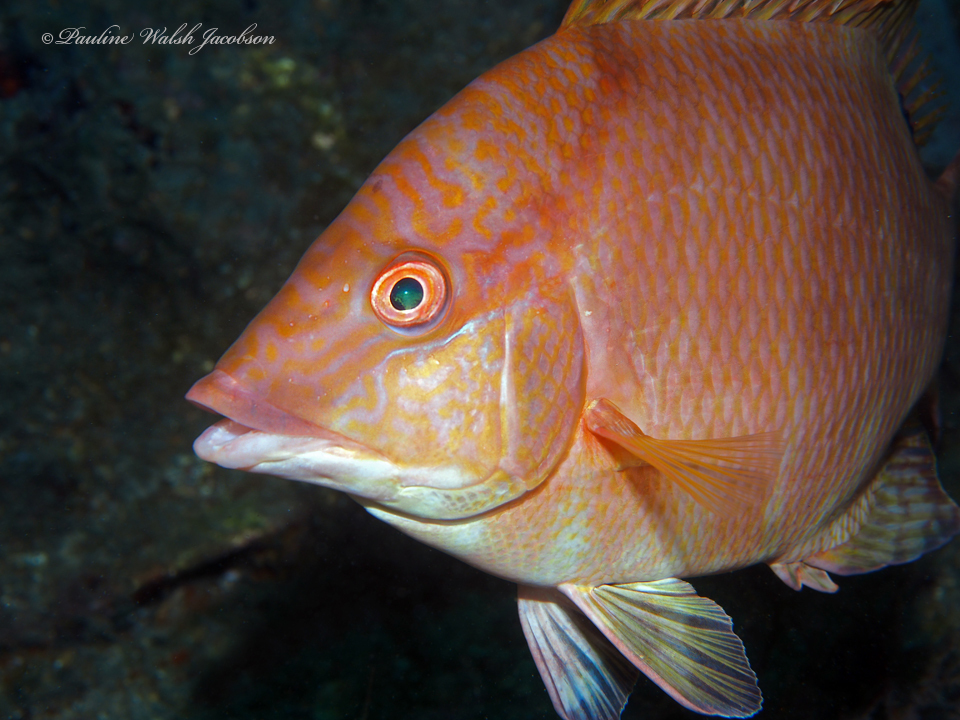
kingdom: Animalia
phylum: Chordata
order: Perciformes
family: Labridae
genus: Lachnolaimus
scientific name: Lachnolaimus maximus
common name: Hogfish
